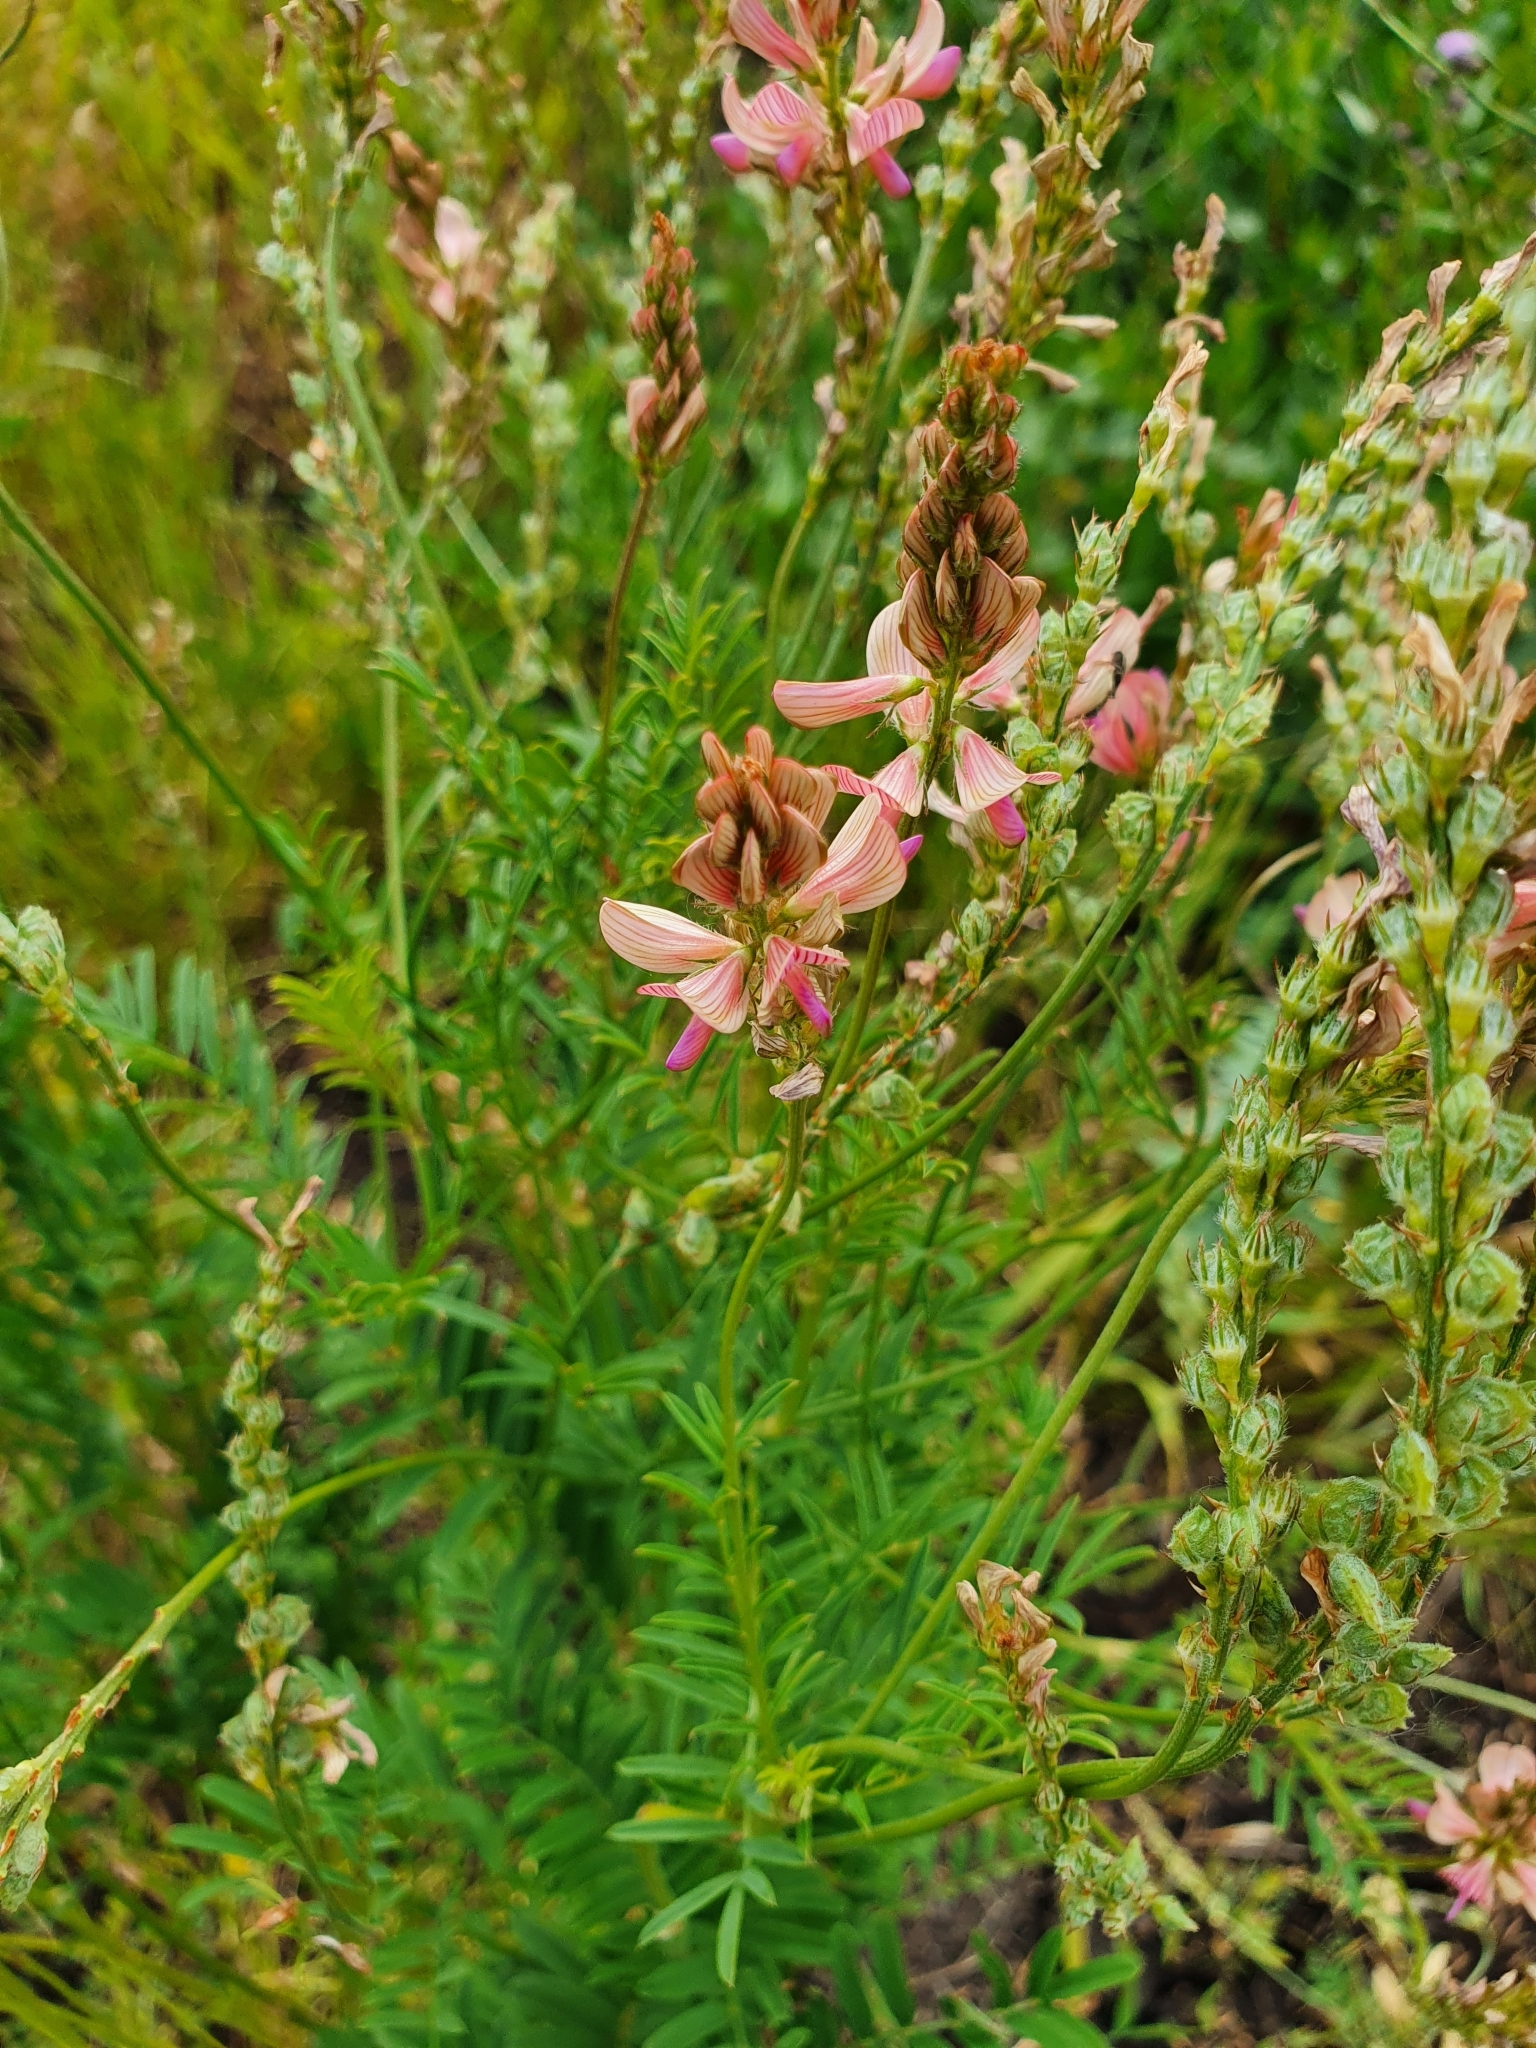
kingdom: Plantae
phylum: Tracheophyta
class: Magnoliopsida
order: Fabales
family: Fabaceae
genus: Onobrychis
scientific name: Onobrychis arenaria
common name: Sand esparcet
